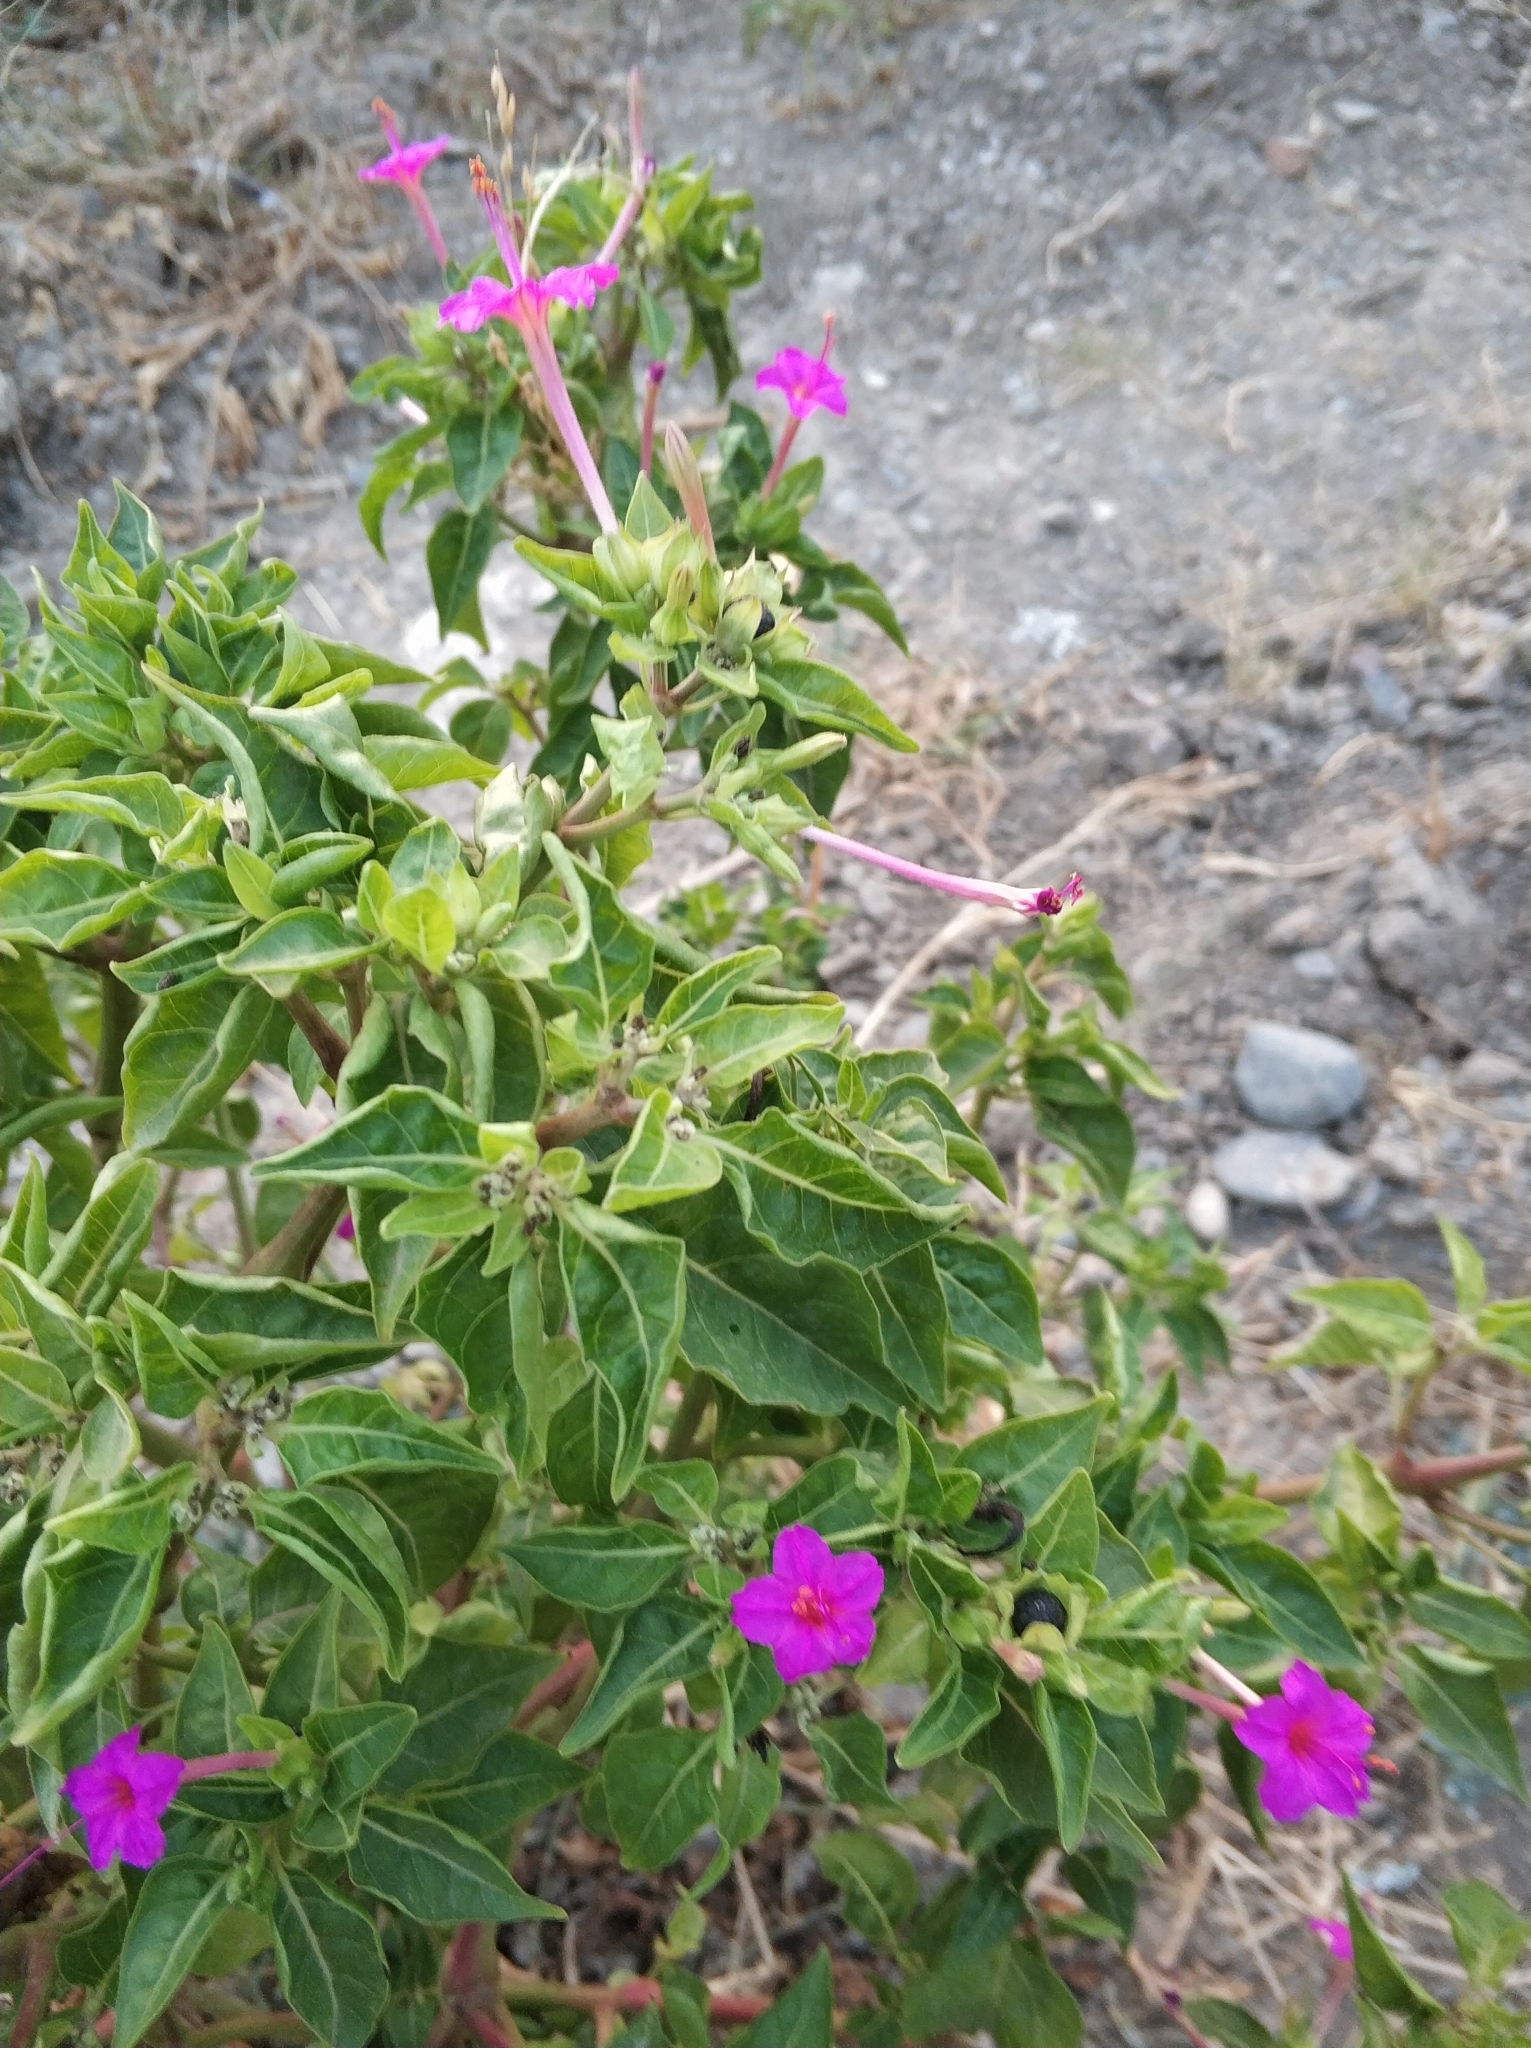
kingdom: Plantae
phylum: Tracheophyta
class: Magnoliopsida
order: Caryophyllales
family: Nyctaginaceae
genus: Mirabilis
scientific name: Mirabilis jalapa
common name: Marvel-of-peru
